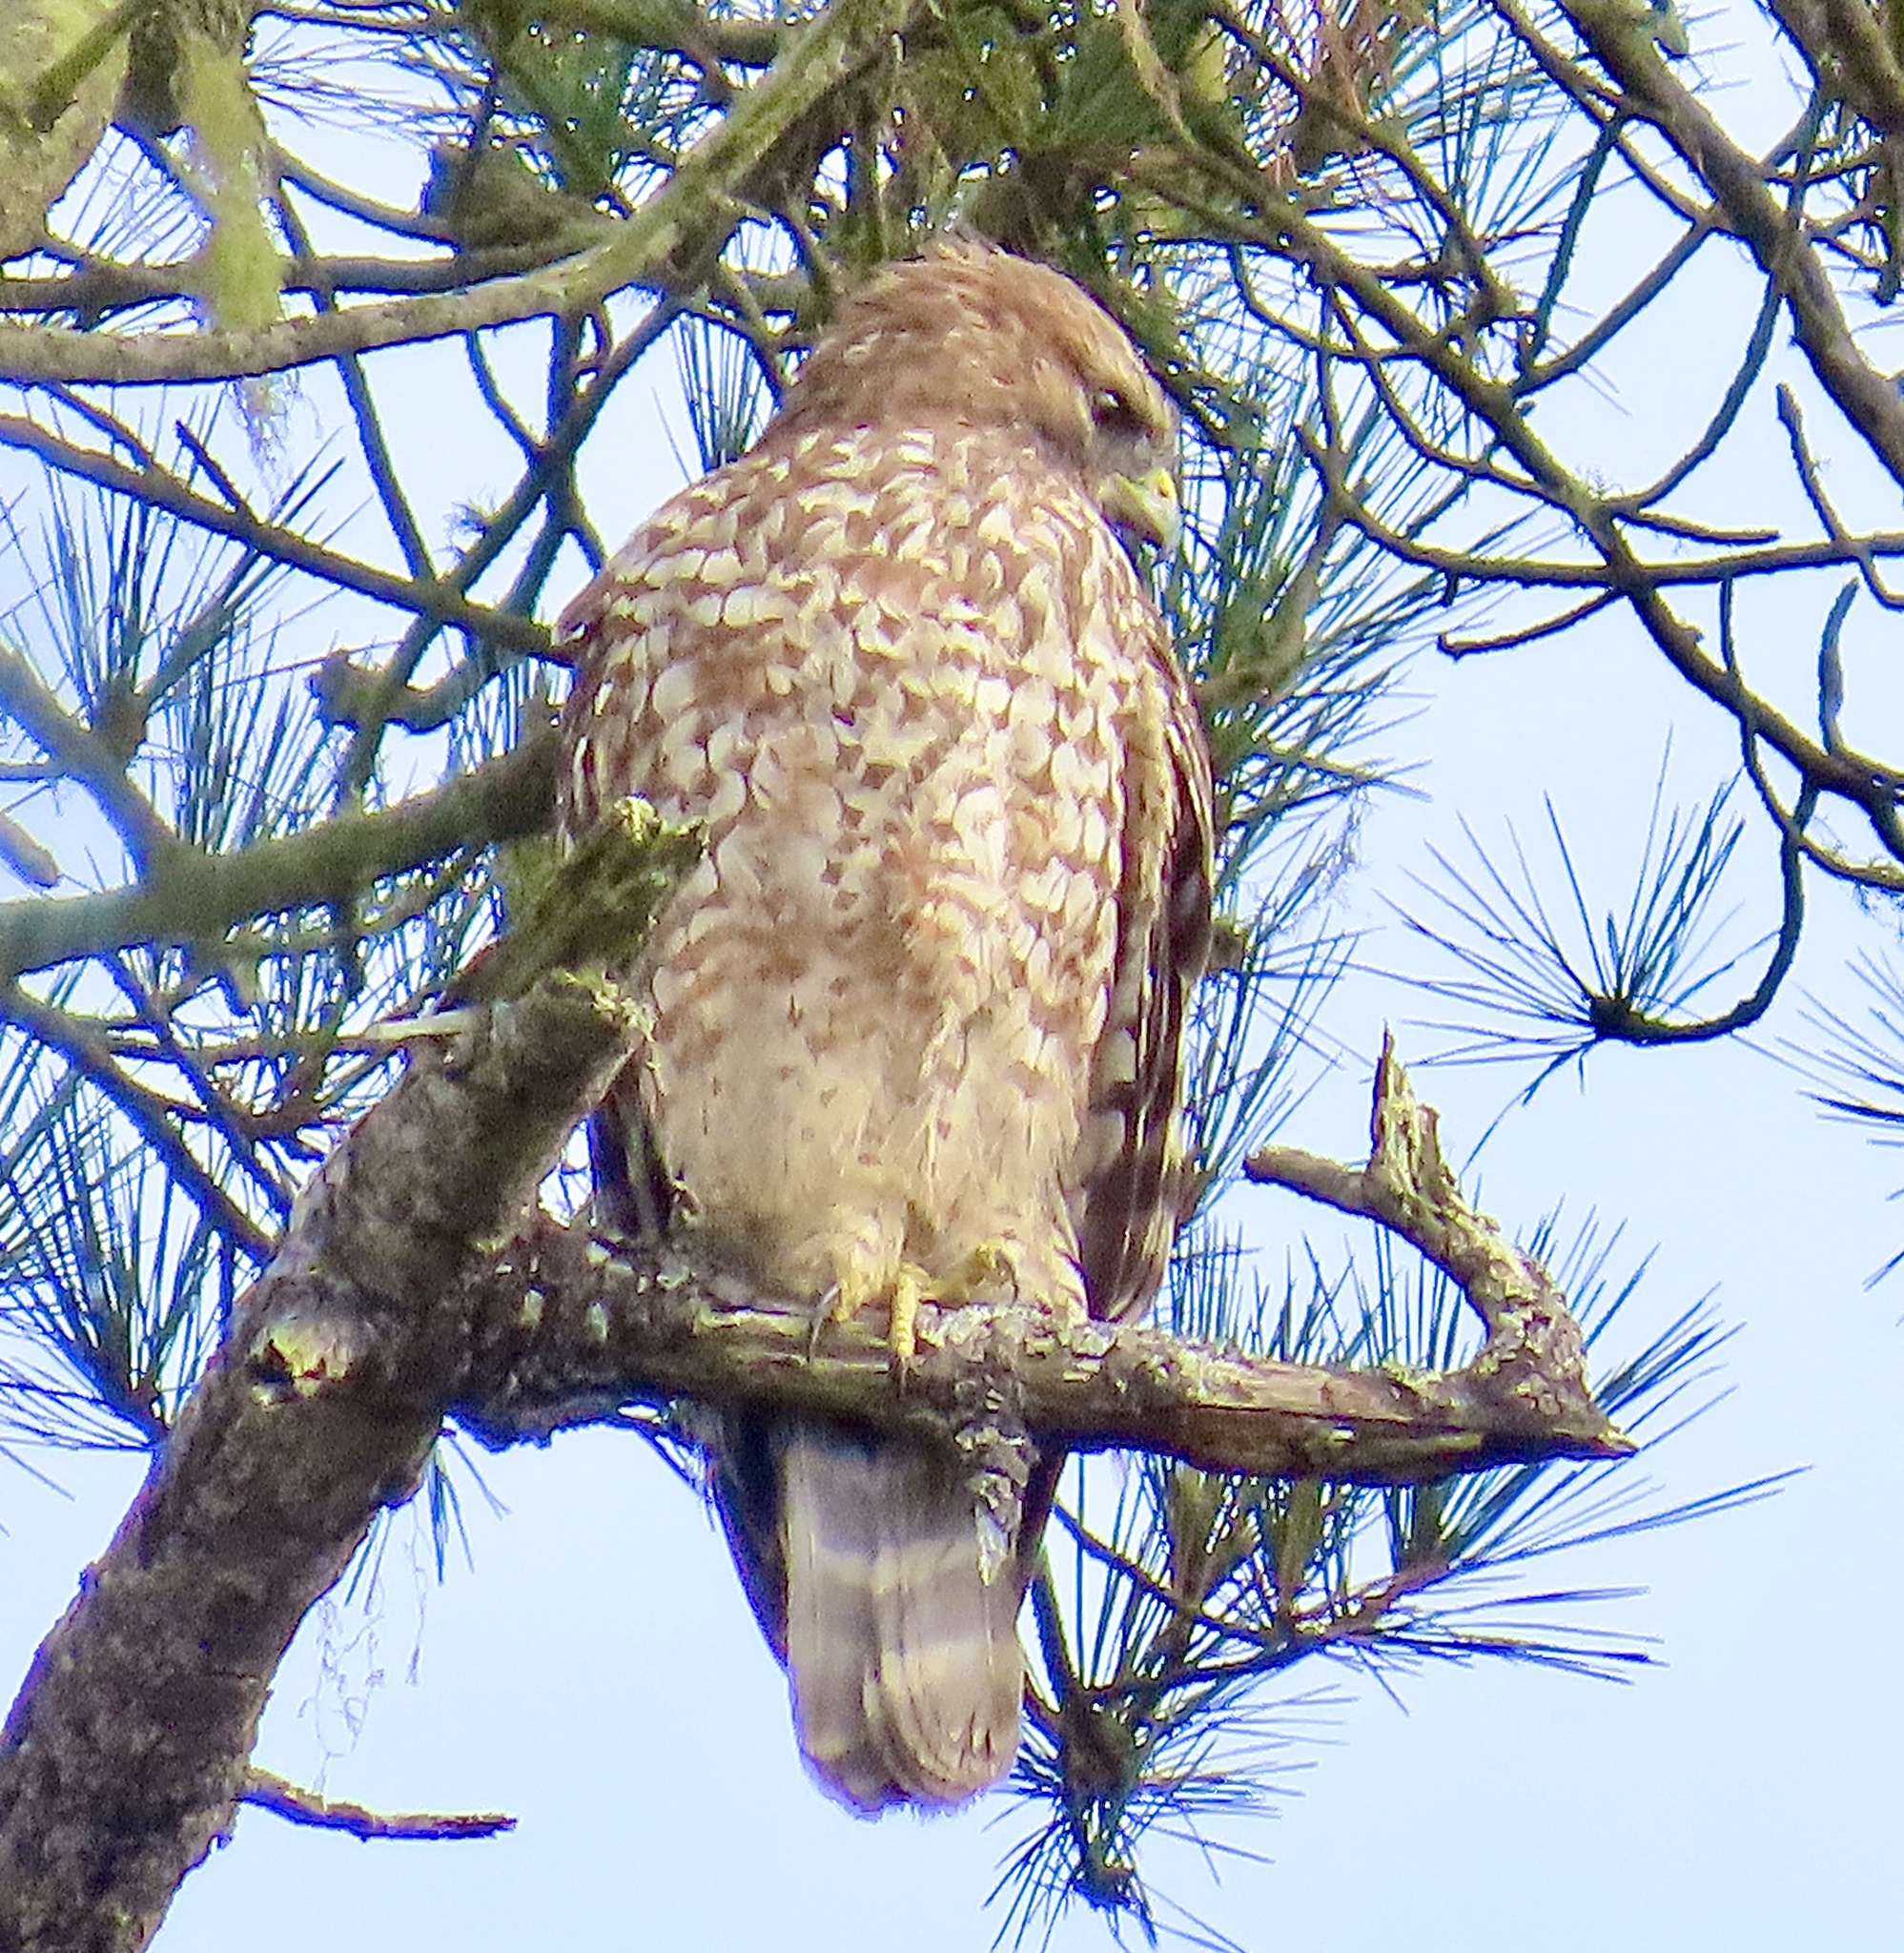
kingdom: Animalia
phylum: Chordata
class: Aves
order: Accipitriformes
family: Accipitridae
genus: Buteo
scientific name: Buteo lineatus
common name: Red-shouldered hawk
